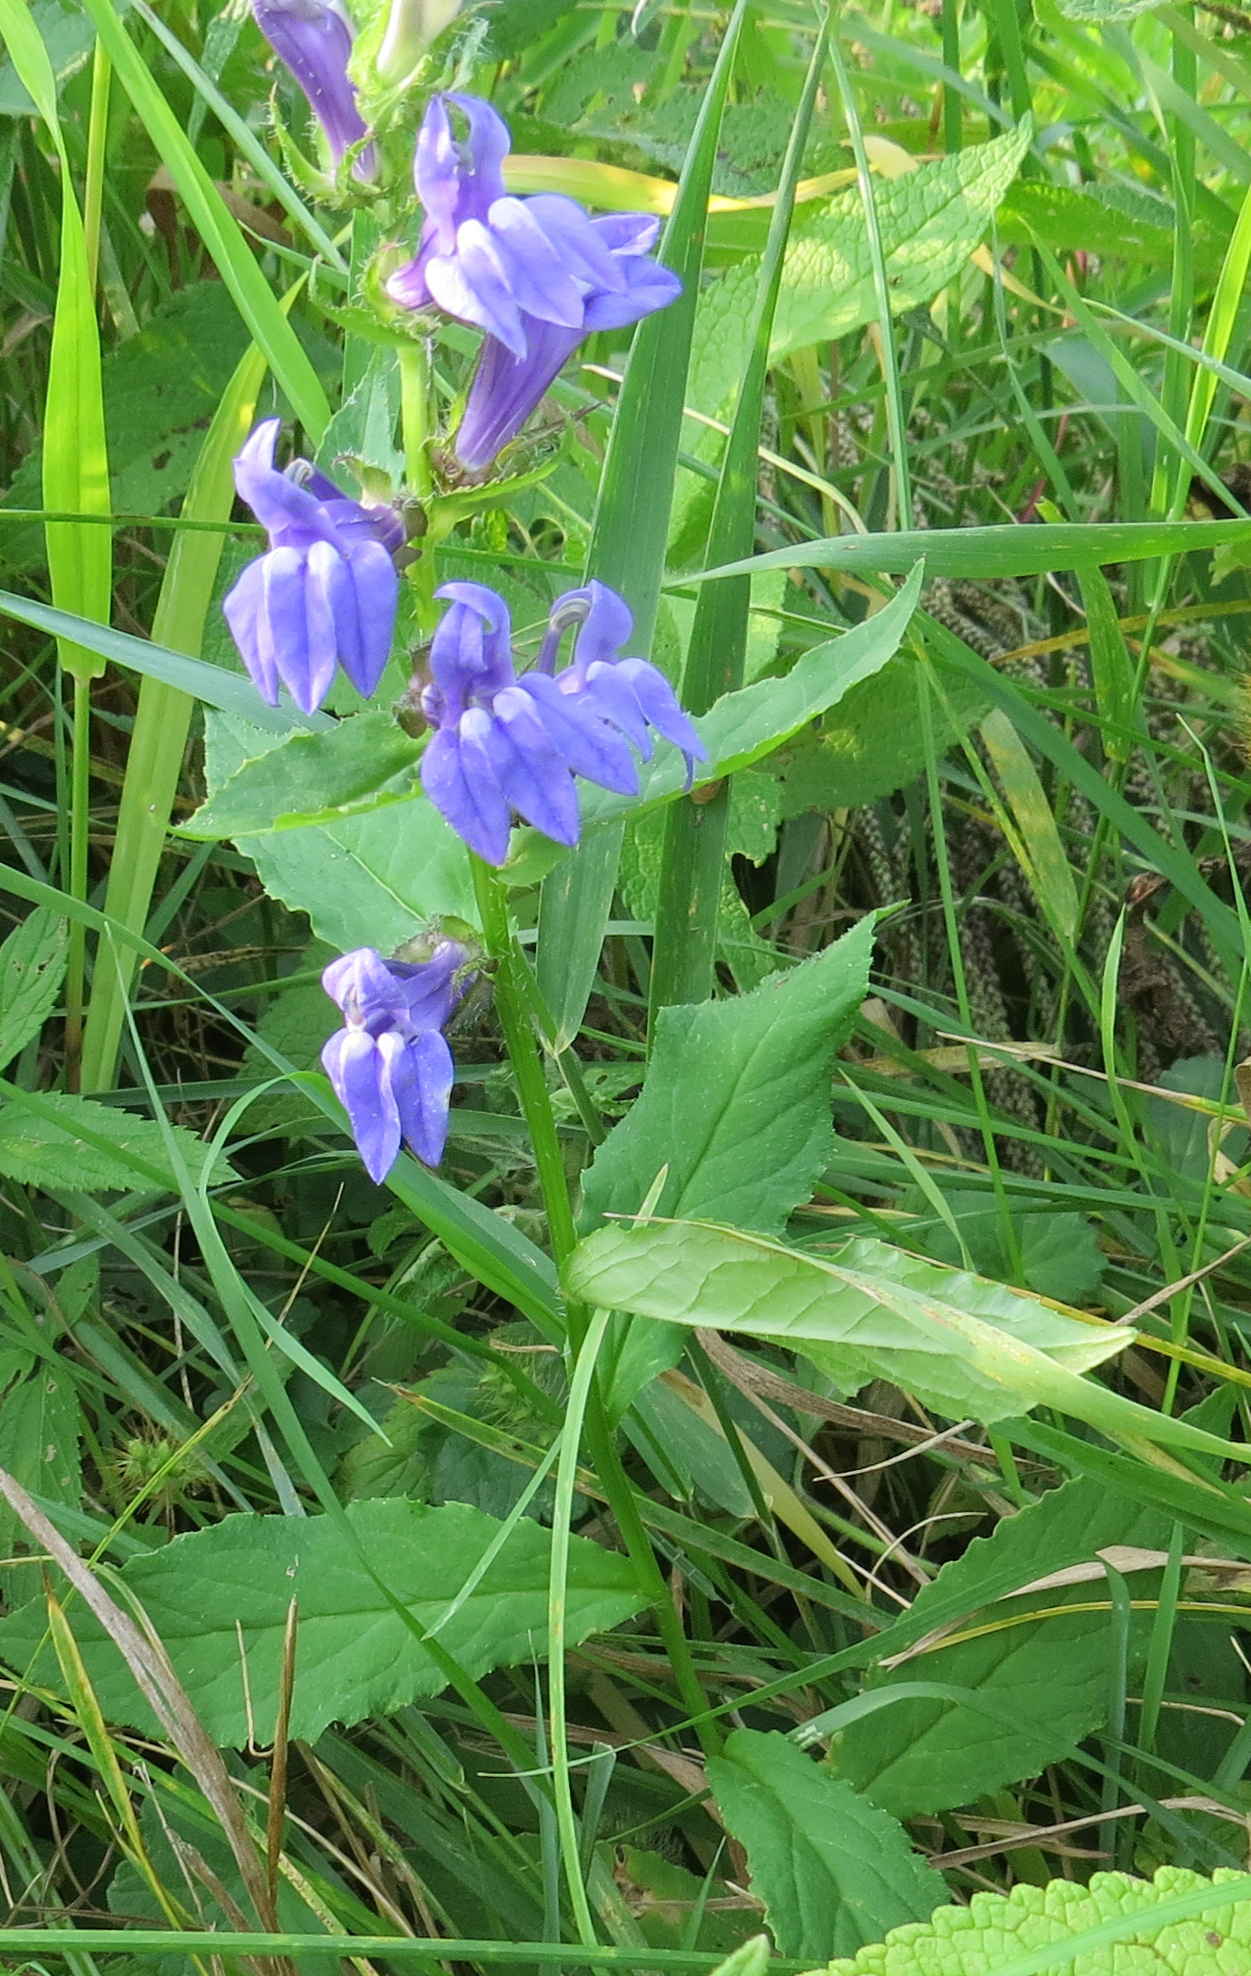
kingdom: Plantae
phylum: Tracheophyta
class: Magnoliopsida
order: Asterales
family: Campanulaceae
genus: Lobelia
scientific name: Lobelia siphilitica
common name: Great lobelia
